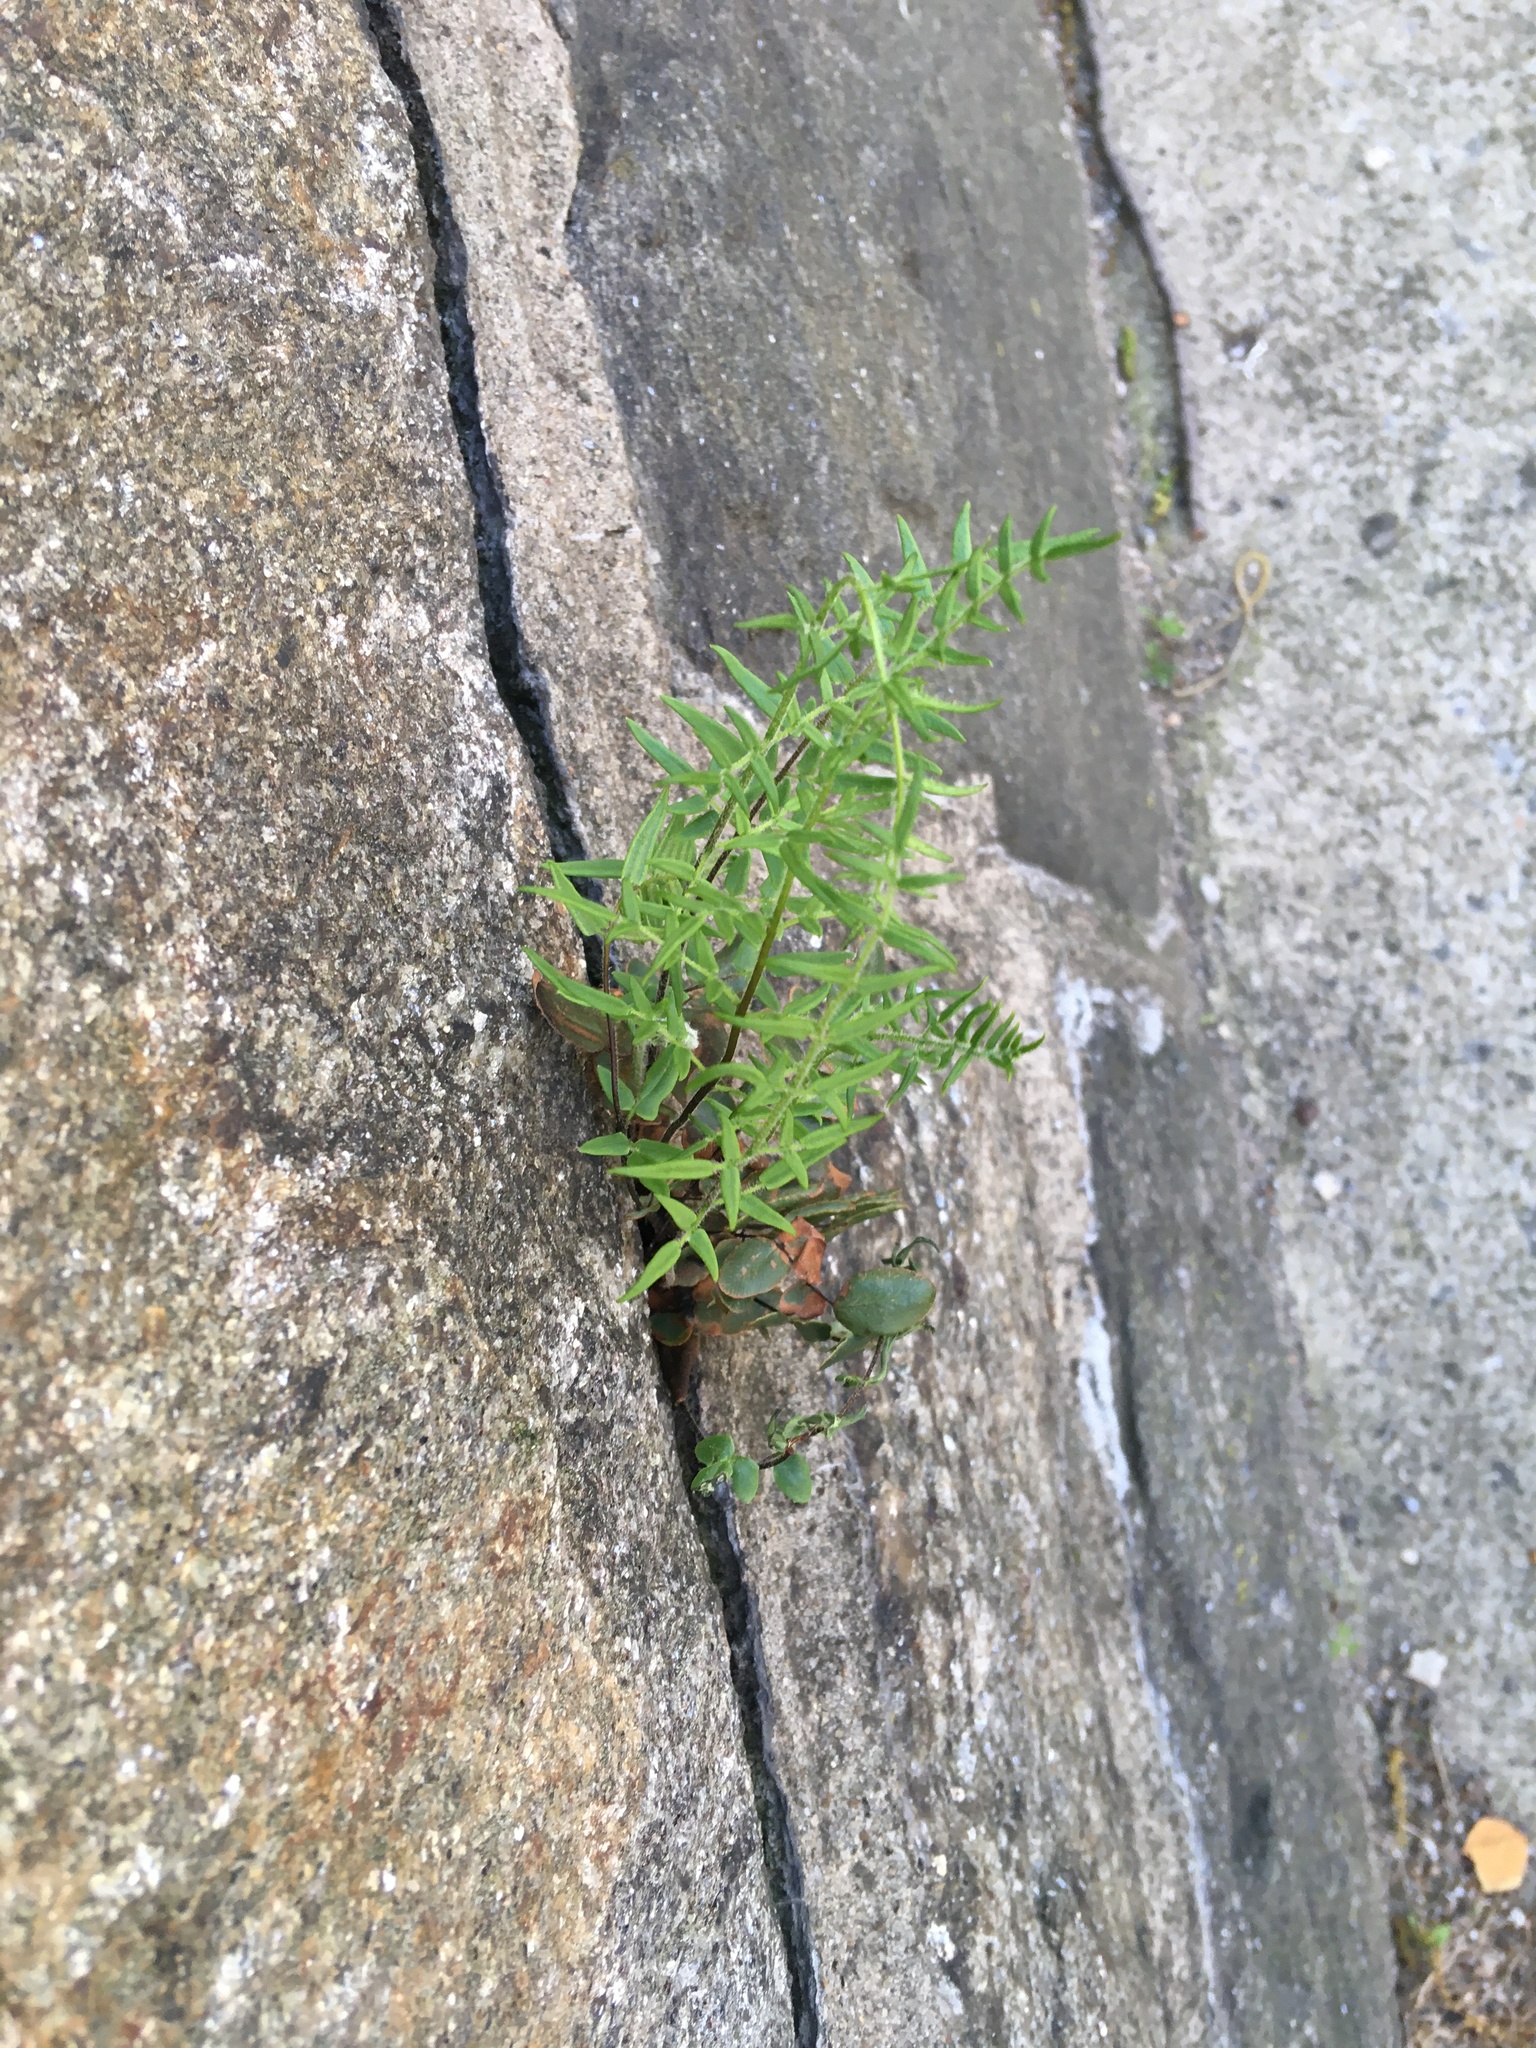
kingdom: Plantae
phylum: Tracheophyta
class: Polypodiopsida
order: Polypodiales
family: Pteridaceae
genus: Pellaea
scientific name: Pellaea atropurpurea
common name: Hairy cliffbrake
